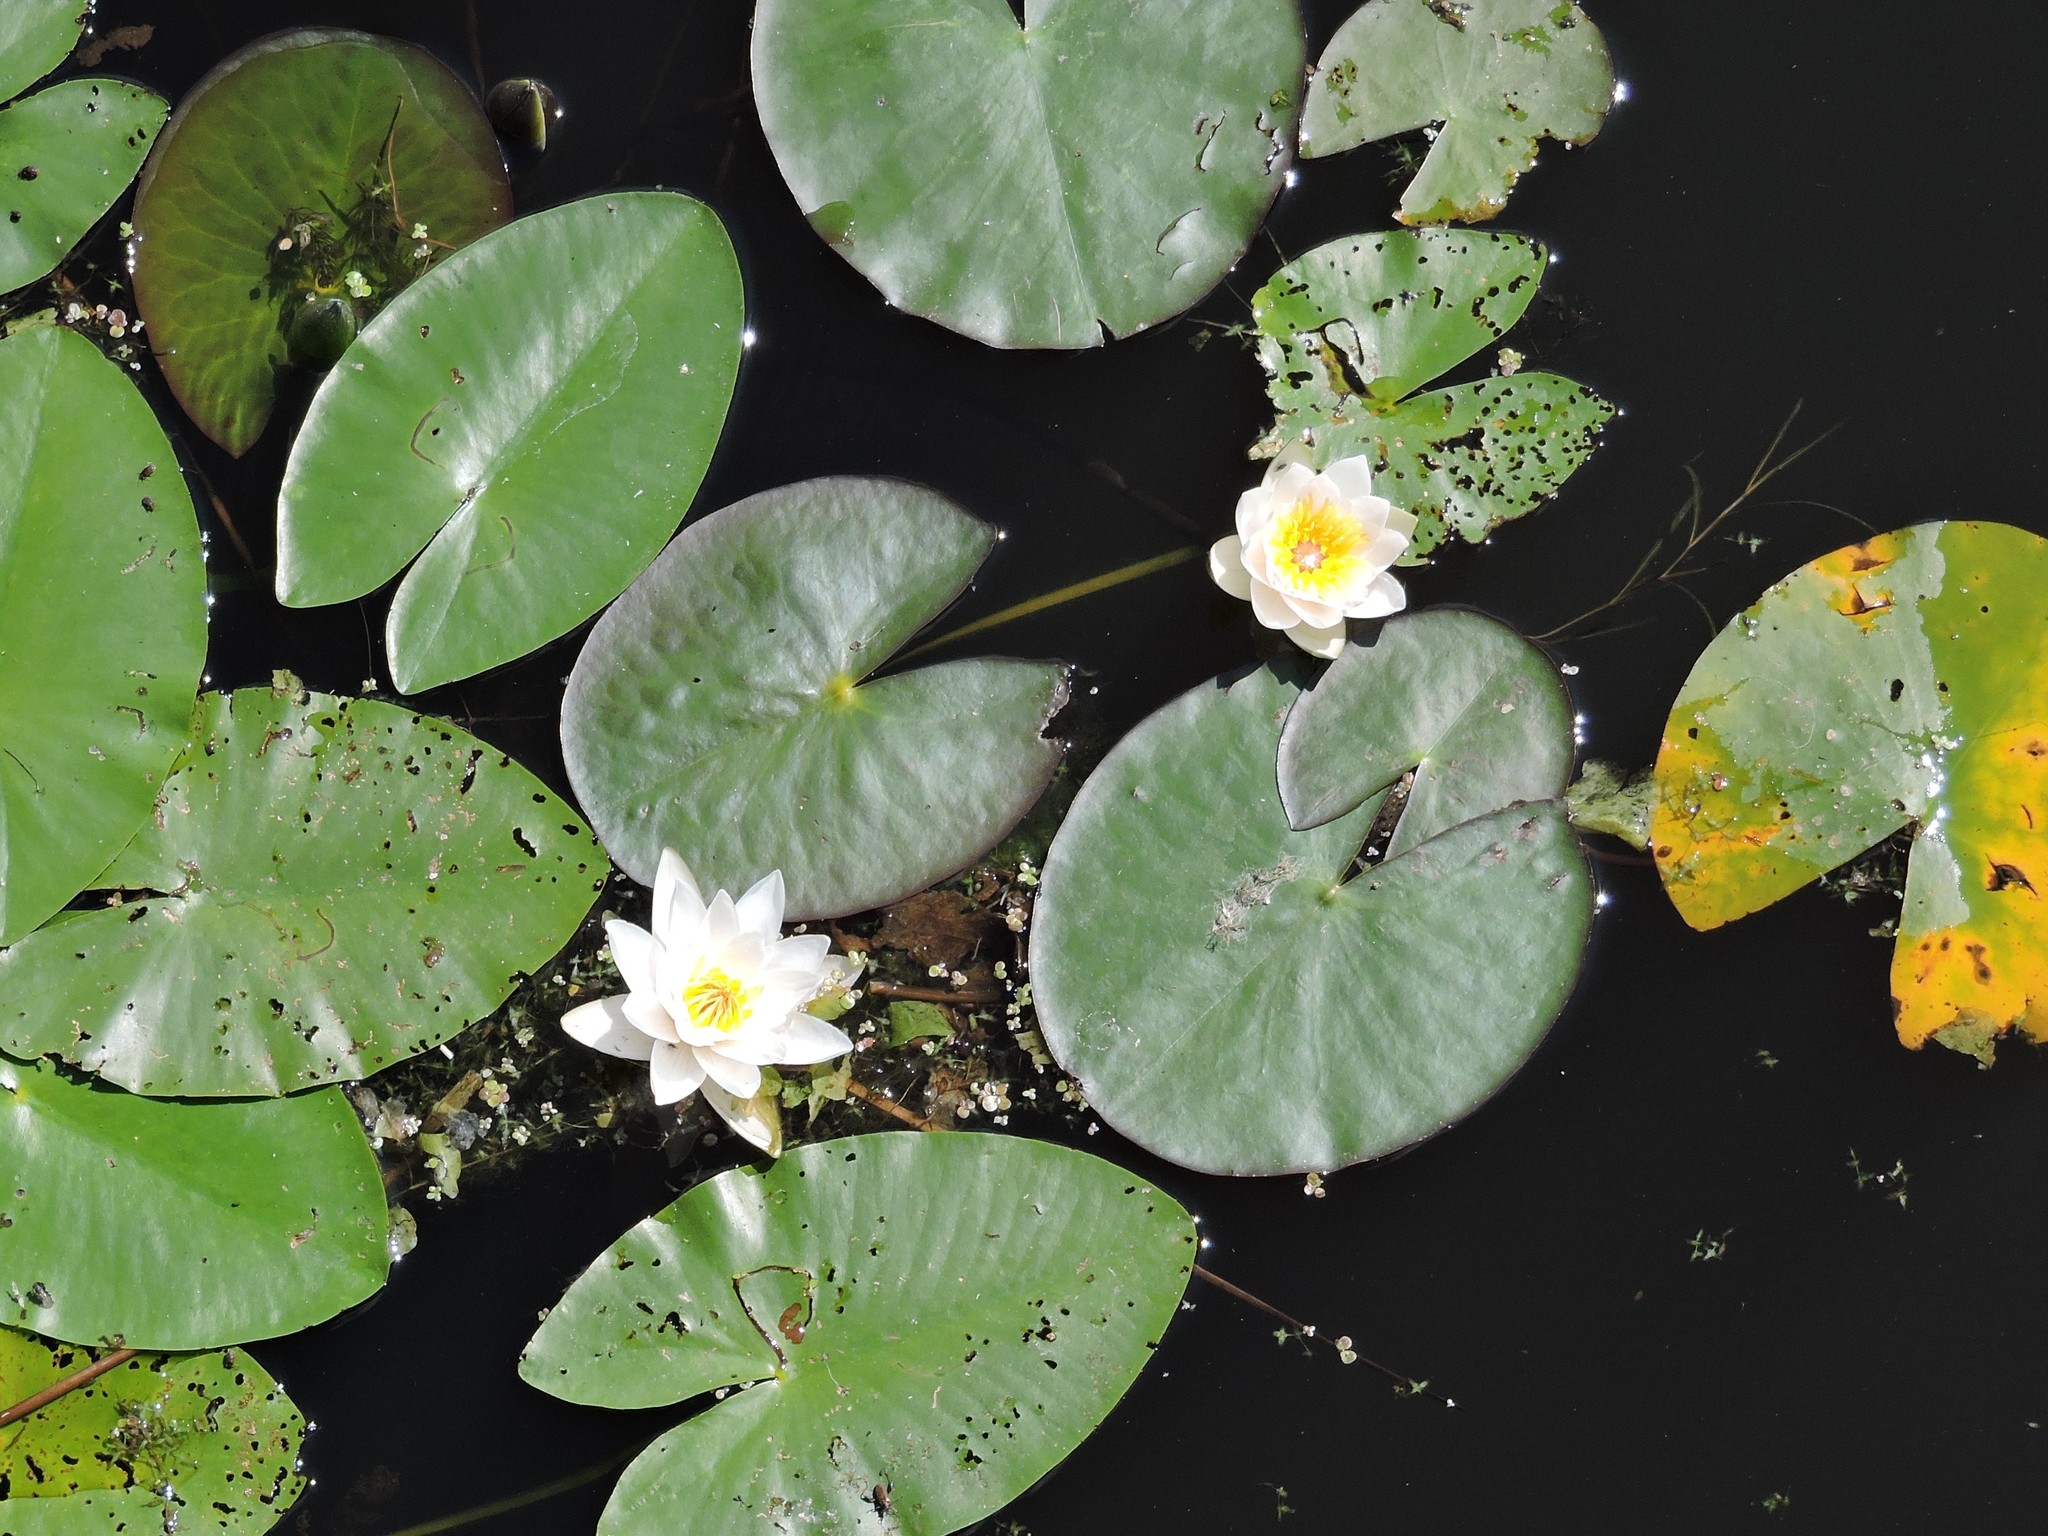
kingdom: Plantae
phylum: Tracheophyta
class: Magnoliopsida
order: Nymphaeales
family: Nymphaeaceae
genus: Nymphaea
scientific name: Nymphaea candida
